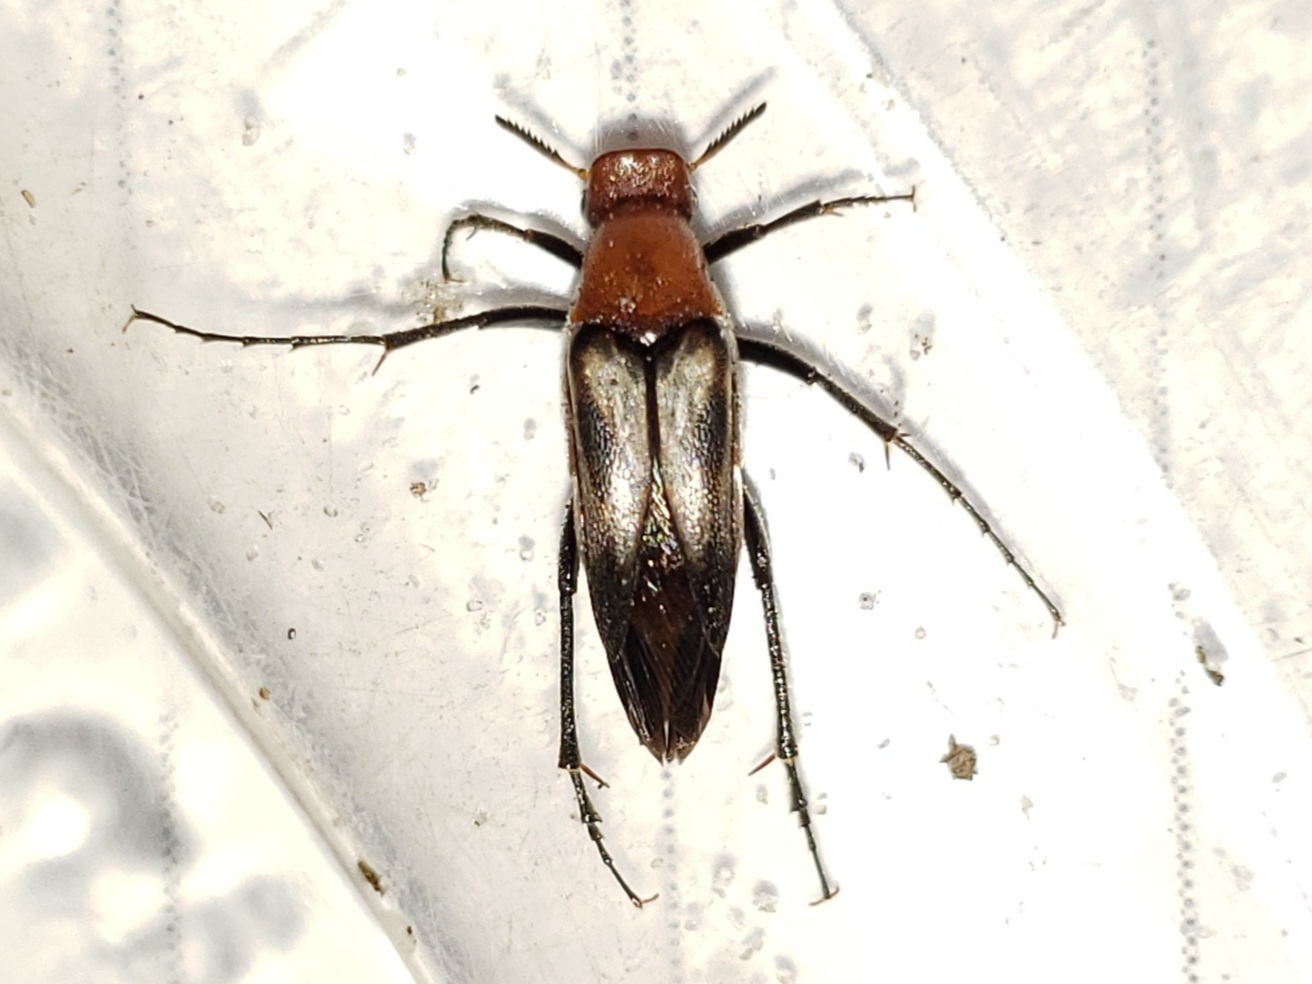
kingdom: Animalia
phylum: Arthropoda
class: Insecta
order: Coleoptera
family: Ripiphoridae
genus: Macrosiagon
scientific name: Macrosiagon sayi
